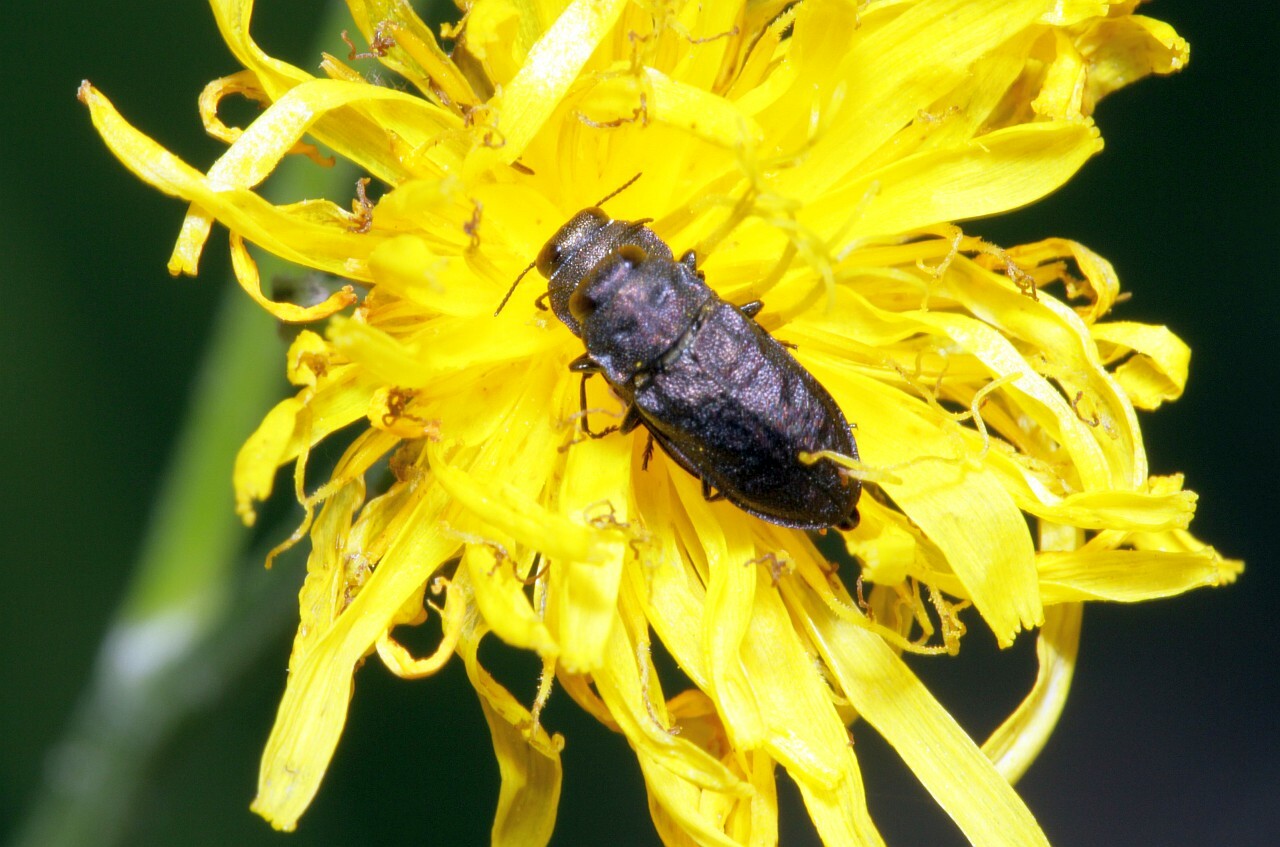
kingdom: Animalia
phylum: Arthropoda
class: Insecta
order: Coleoptera
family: Buprestidae
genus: Anthaxia
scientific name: Anthaxia quadripunctata
